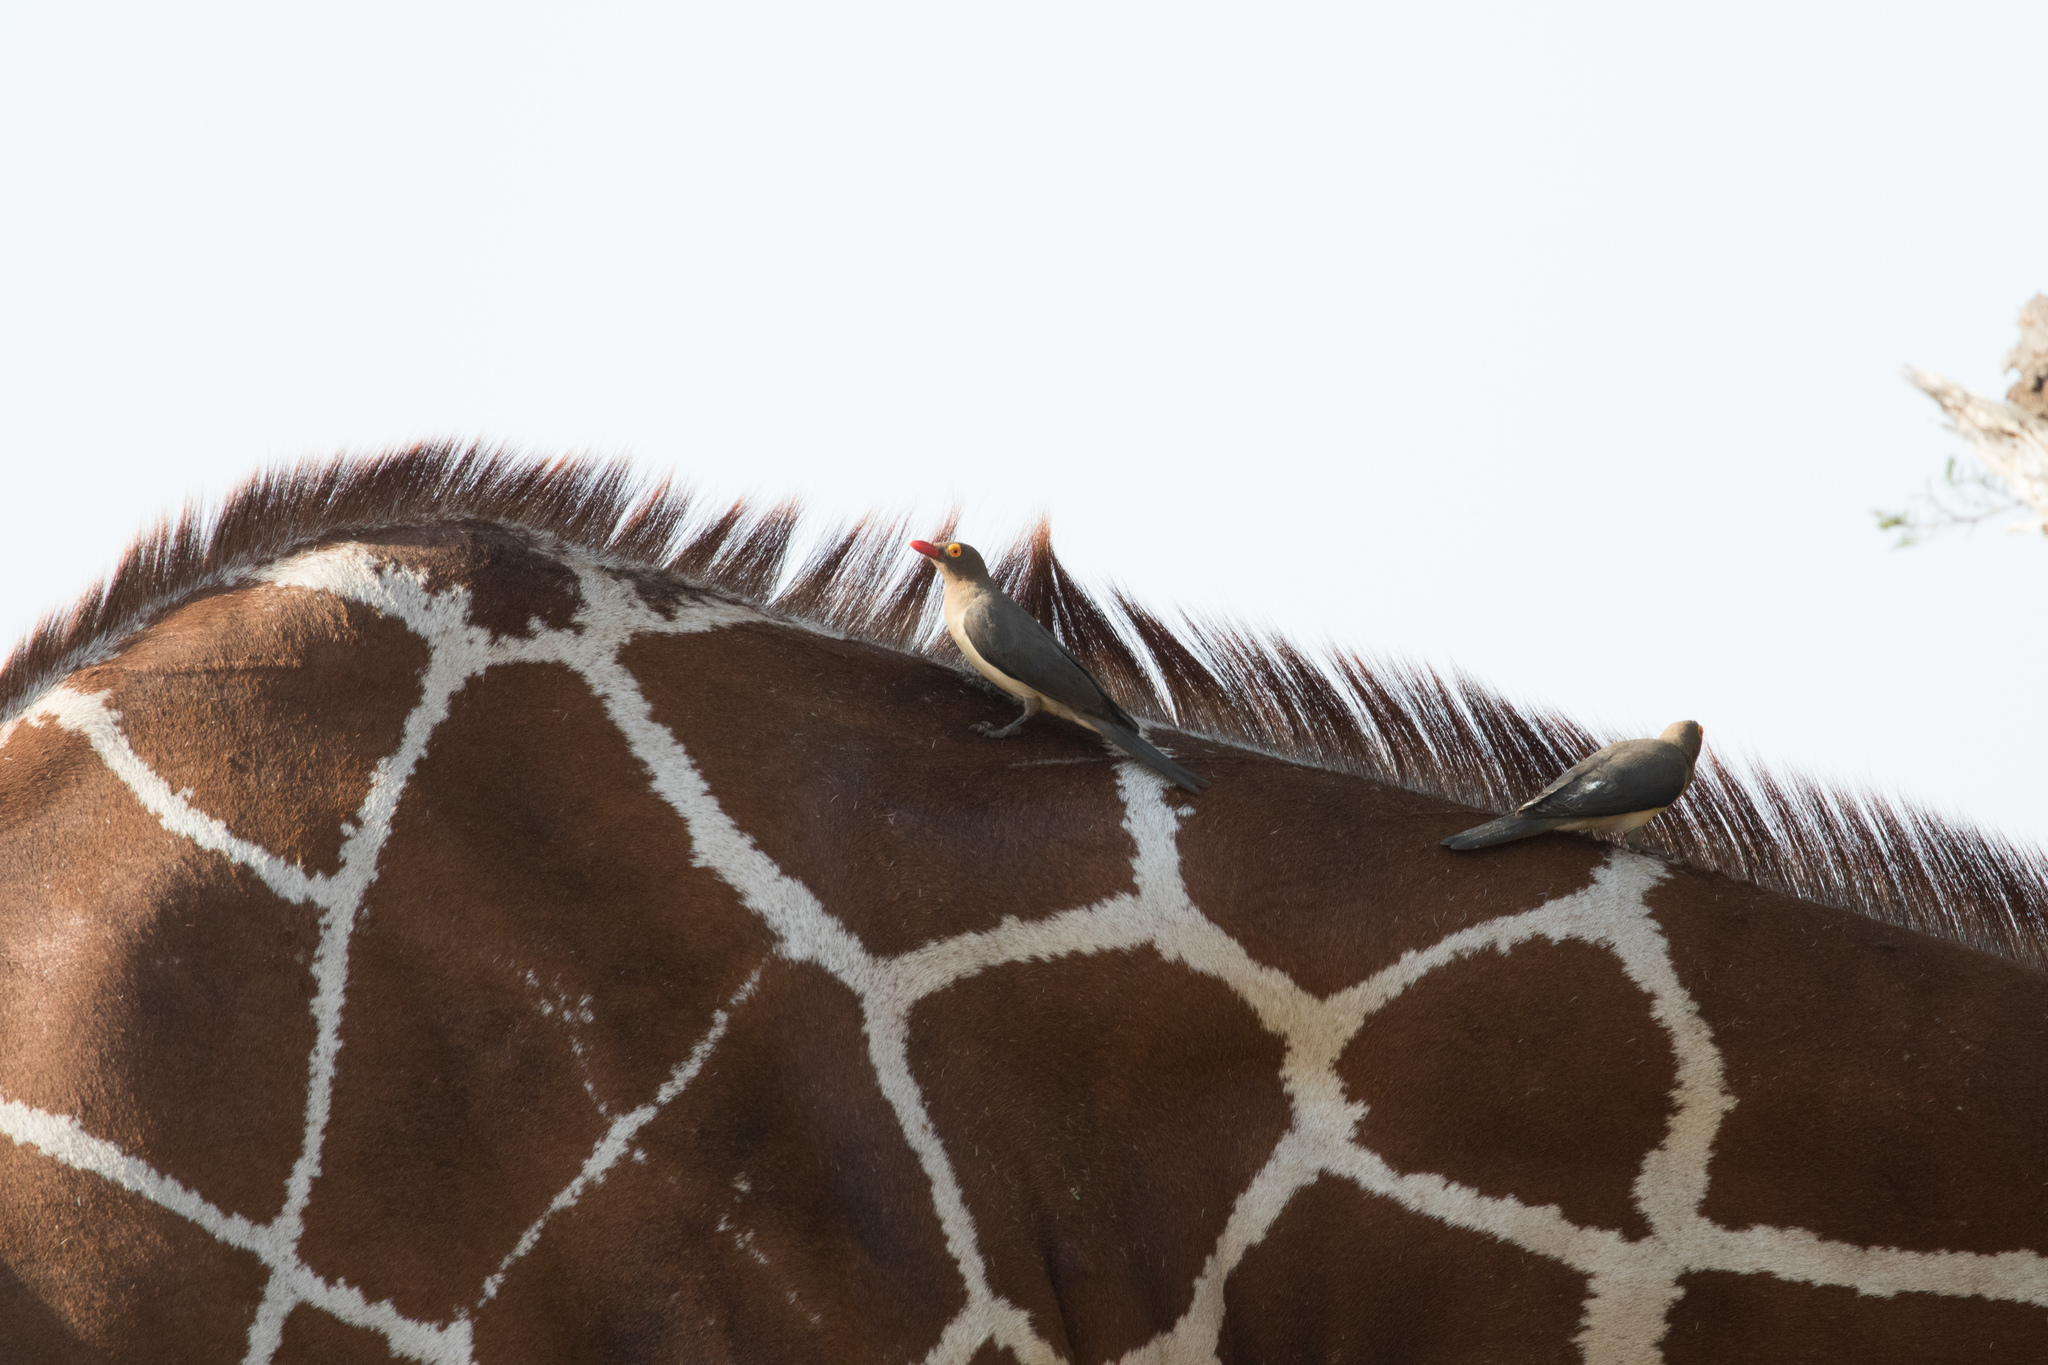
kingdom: Animalia
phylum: Chordata
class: Aves
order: Passeriformes
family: Buphagidae
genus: Buphagus
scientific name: Buphagus erythrorhynchus
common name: Red-billed oxpecker
